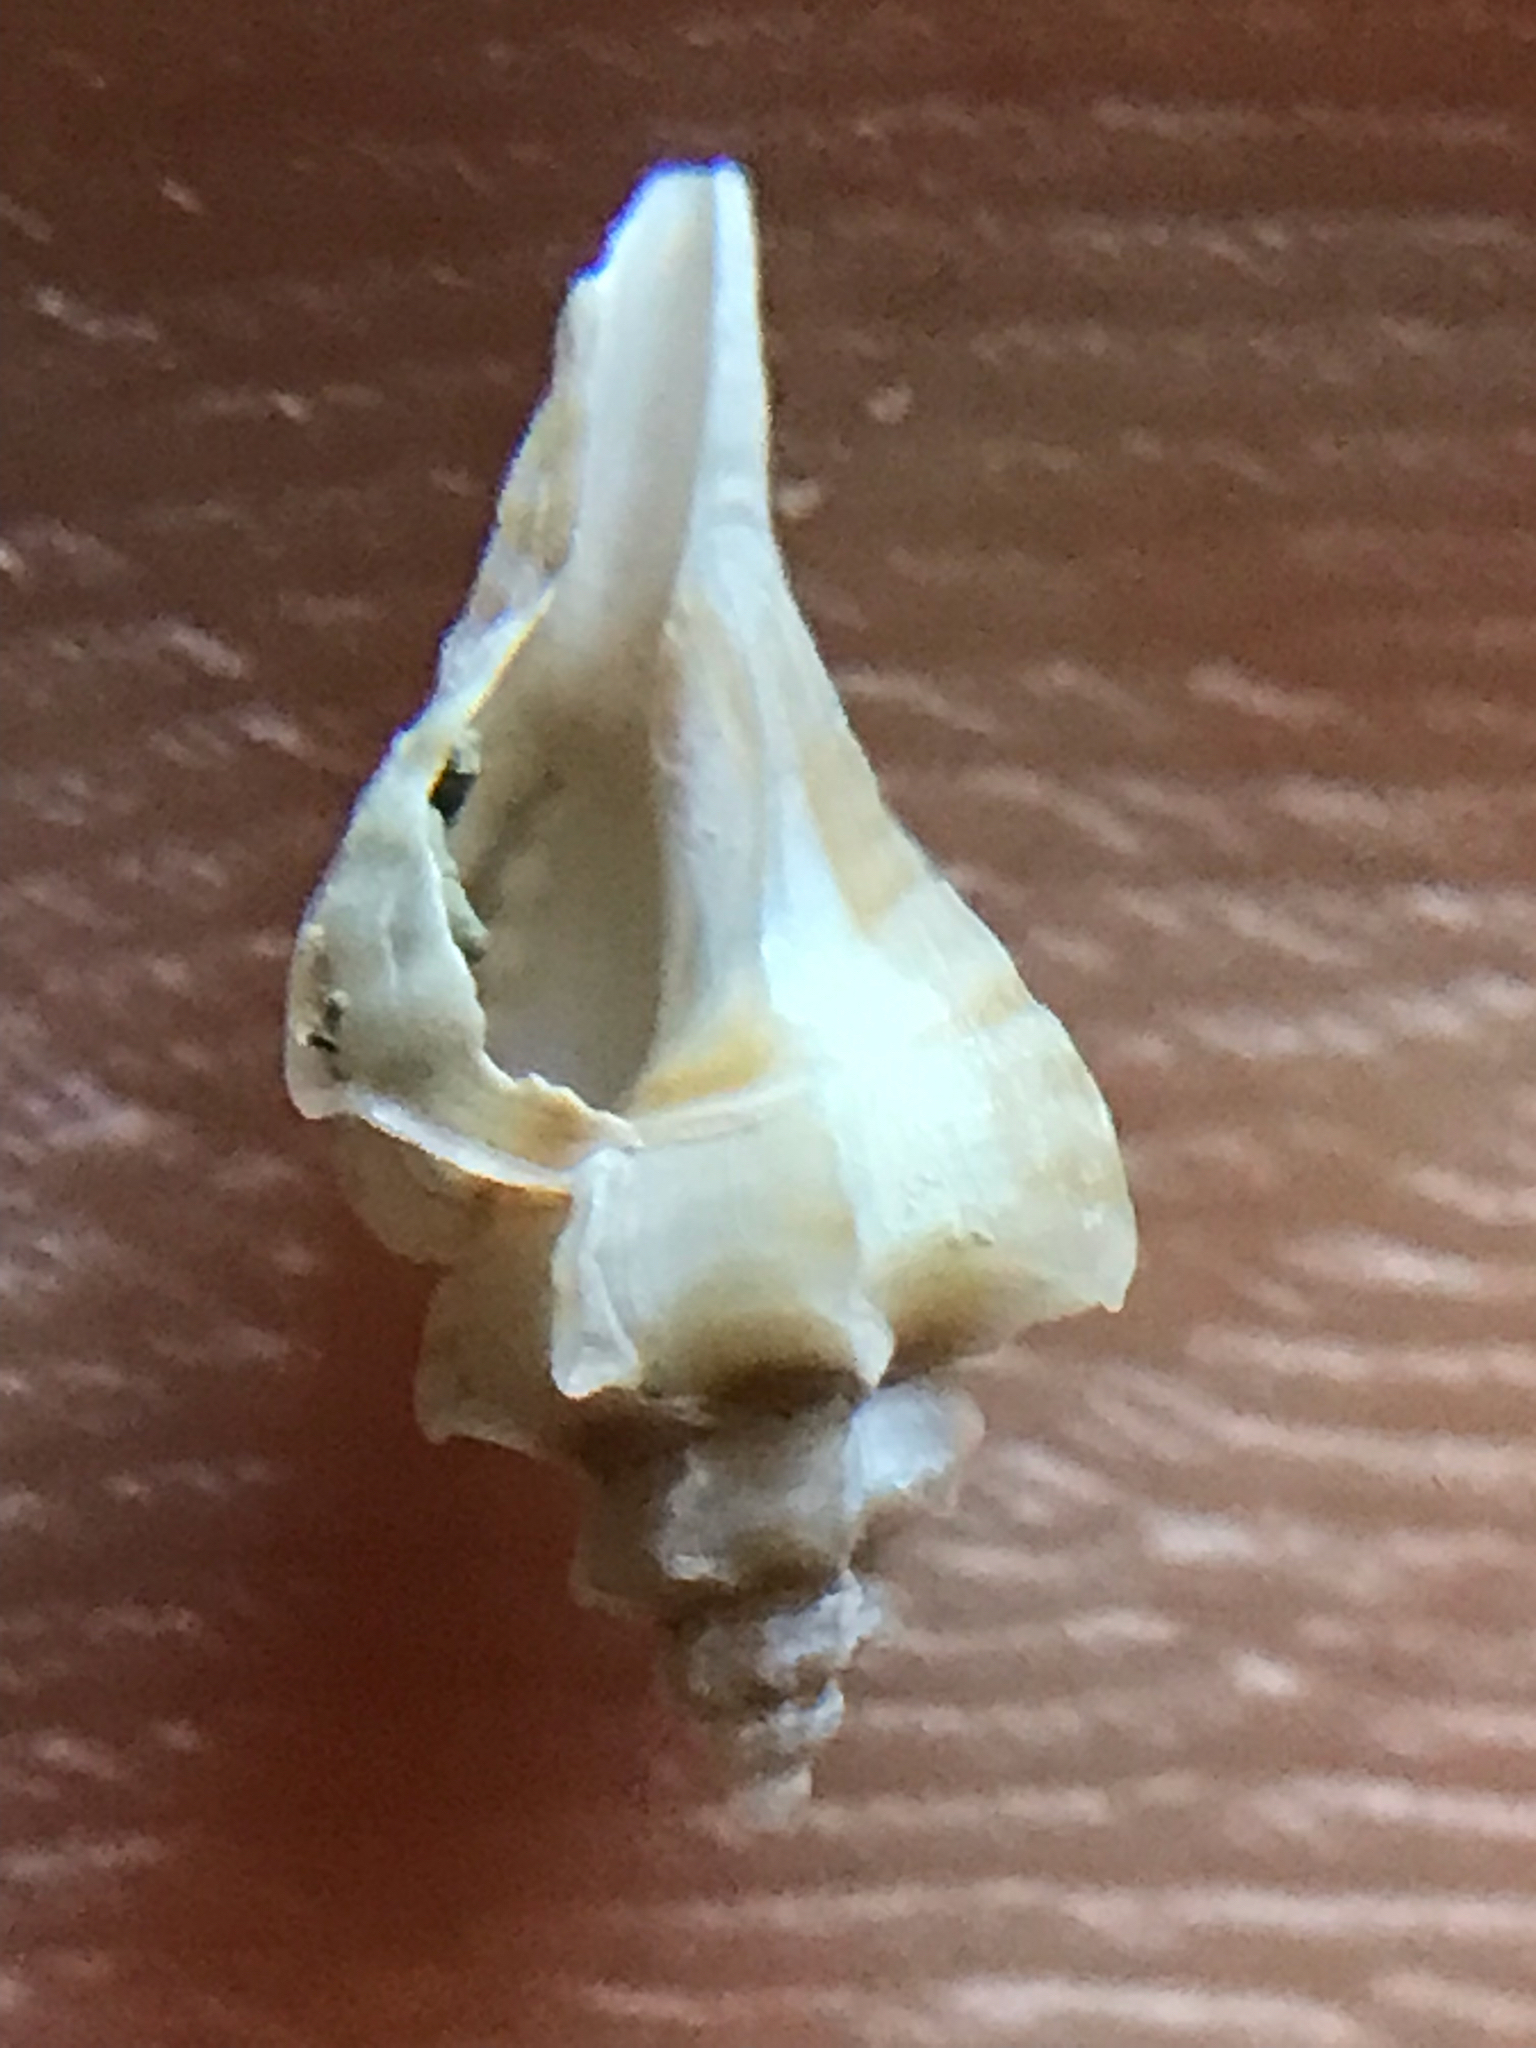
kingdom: Animalia
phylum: Mollusca
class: Gastropoda
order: Neogastropoda
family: Muricidae
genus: Eupleura
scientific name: Eupleura sulcidentata
